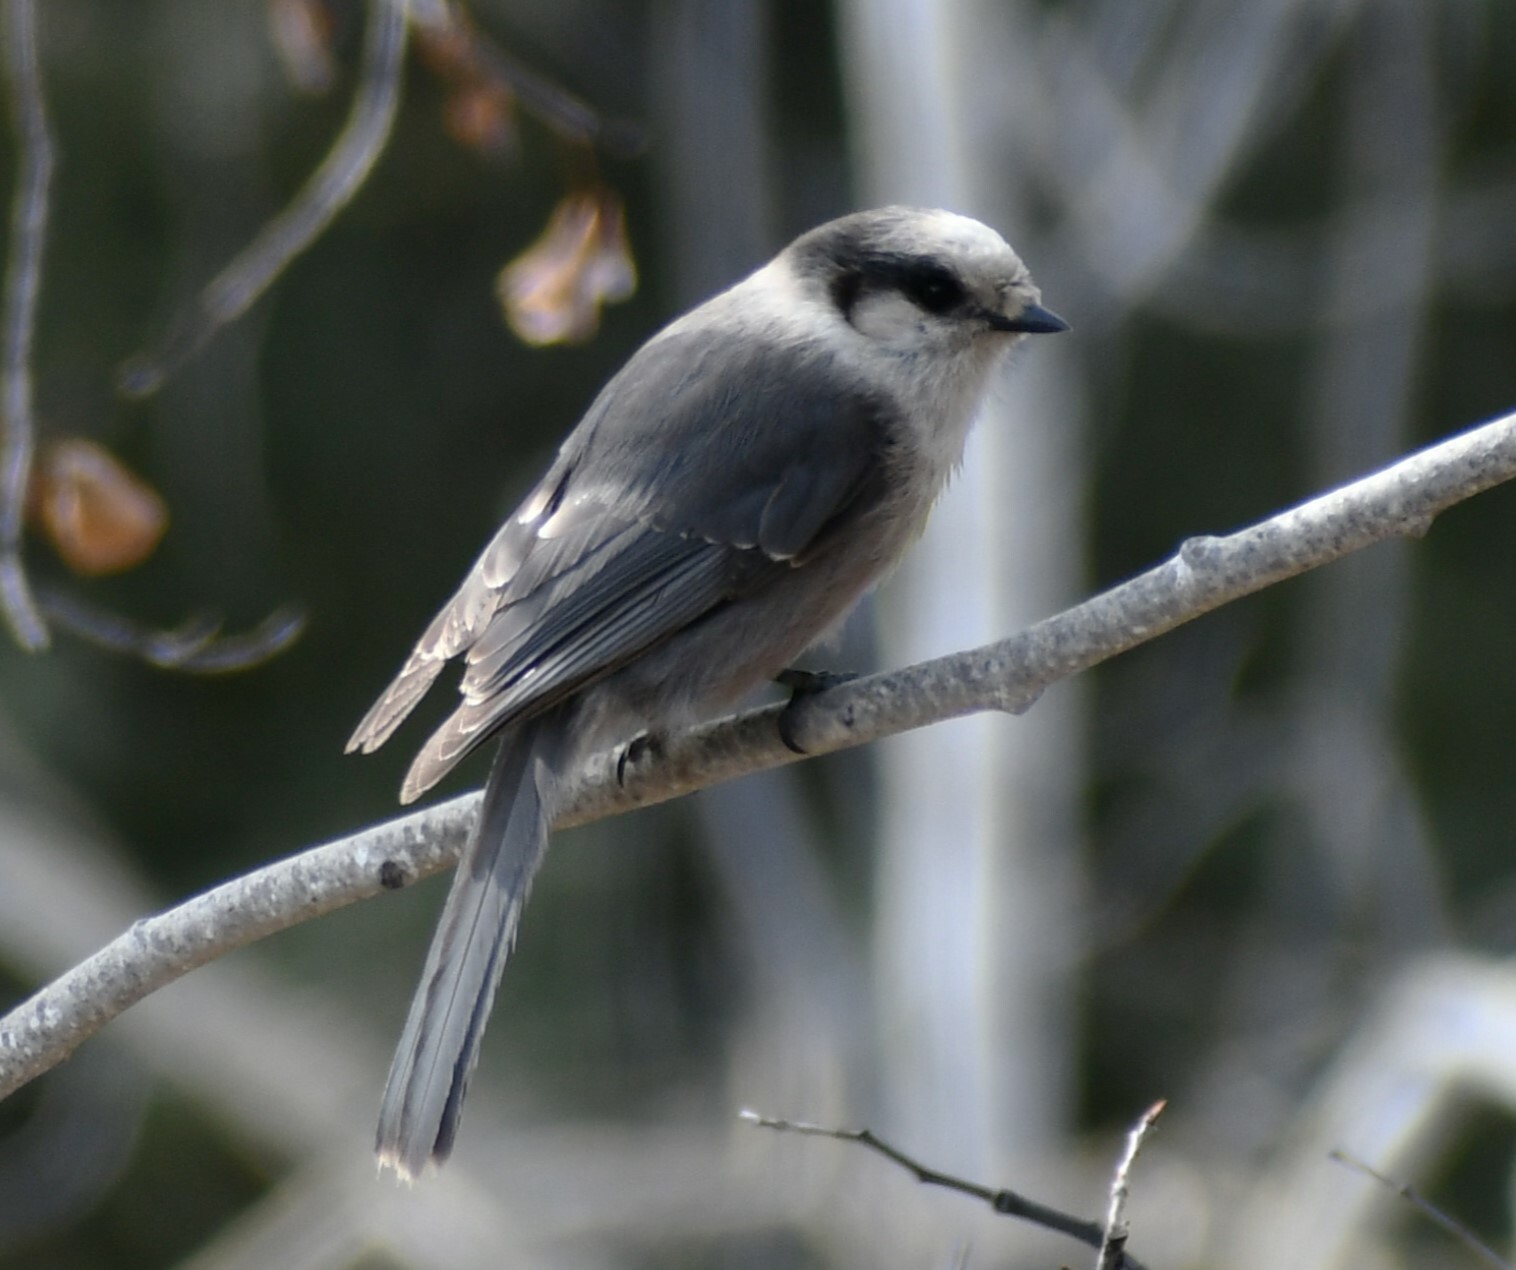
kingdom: Animalia
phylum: Chordata
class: Aves
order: Passeriformes
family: Corvidae
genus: Perisoreus
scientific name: Perisoreus canadensis
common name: Gray jay
